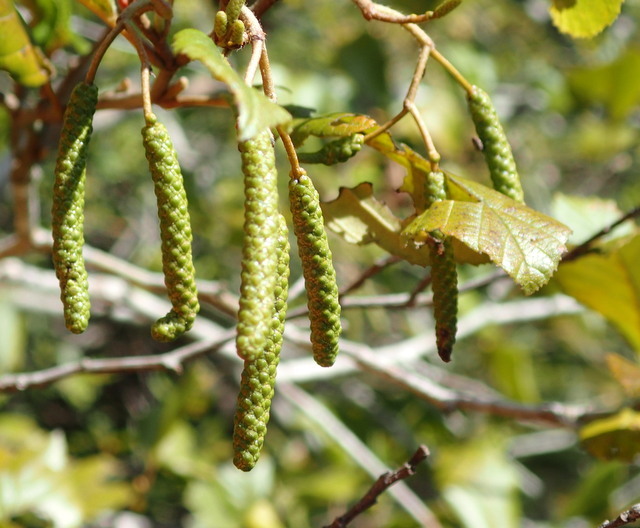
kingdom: Plantae
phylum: Tracheophyta
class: Magnoliopsida
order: Fagales
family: Betulaceae
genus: Alnus
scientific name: Alnus serrulata
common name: Hazel alder
